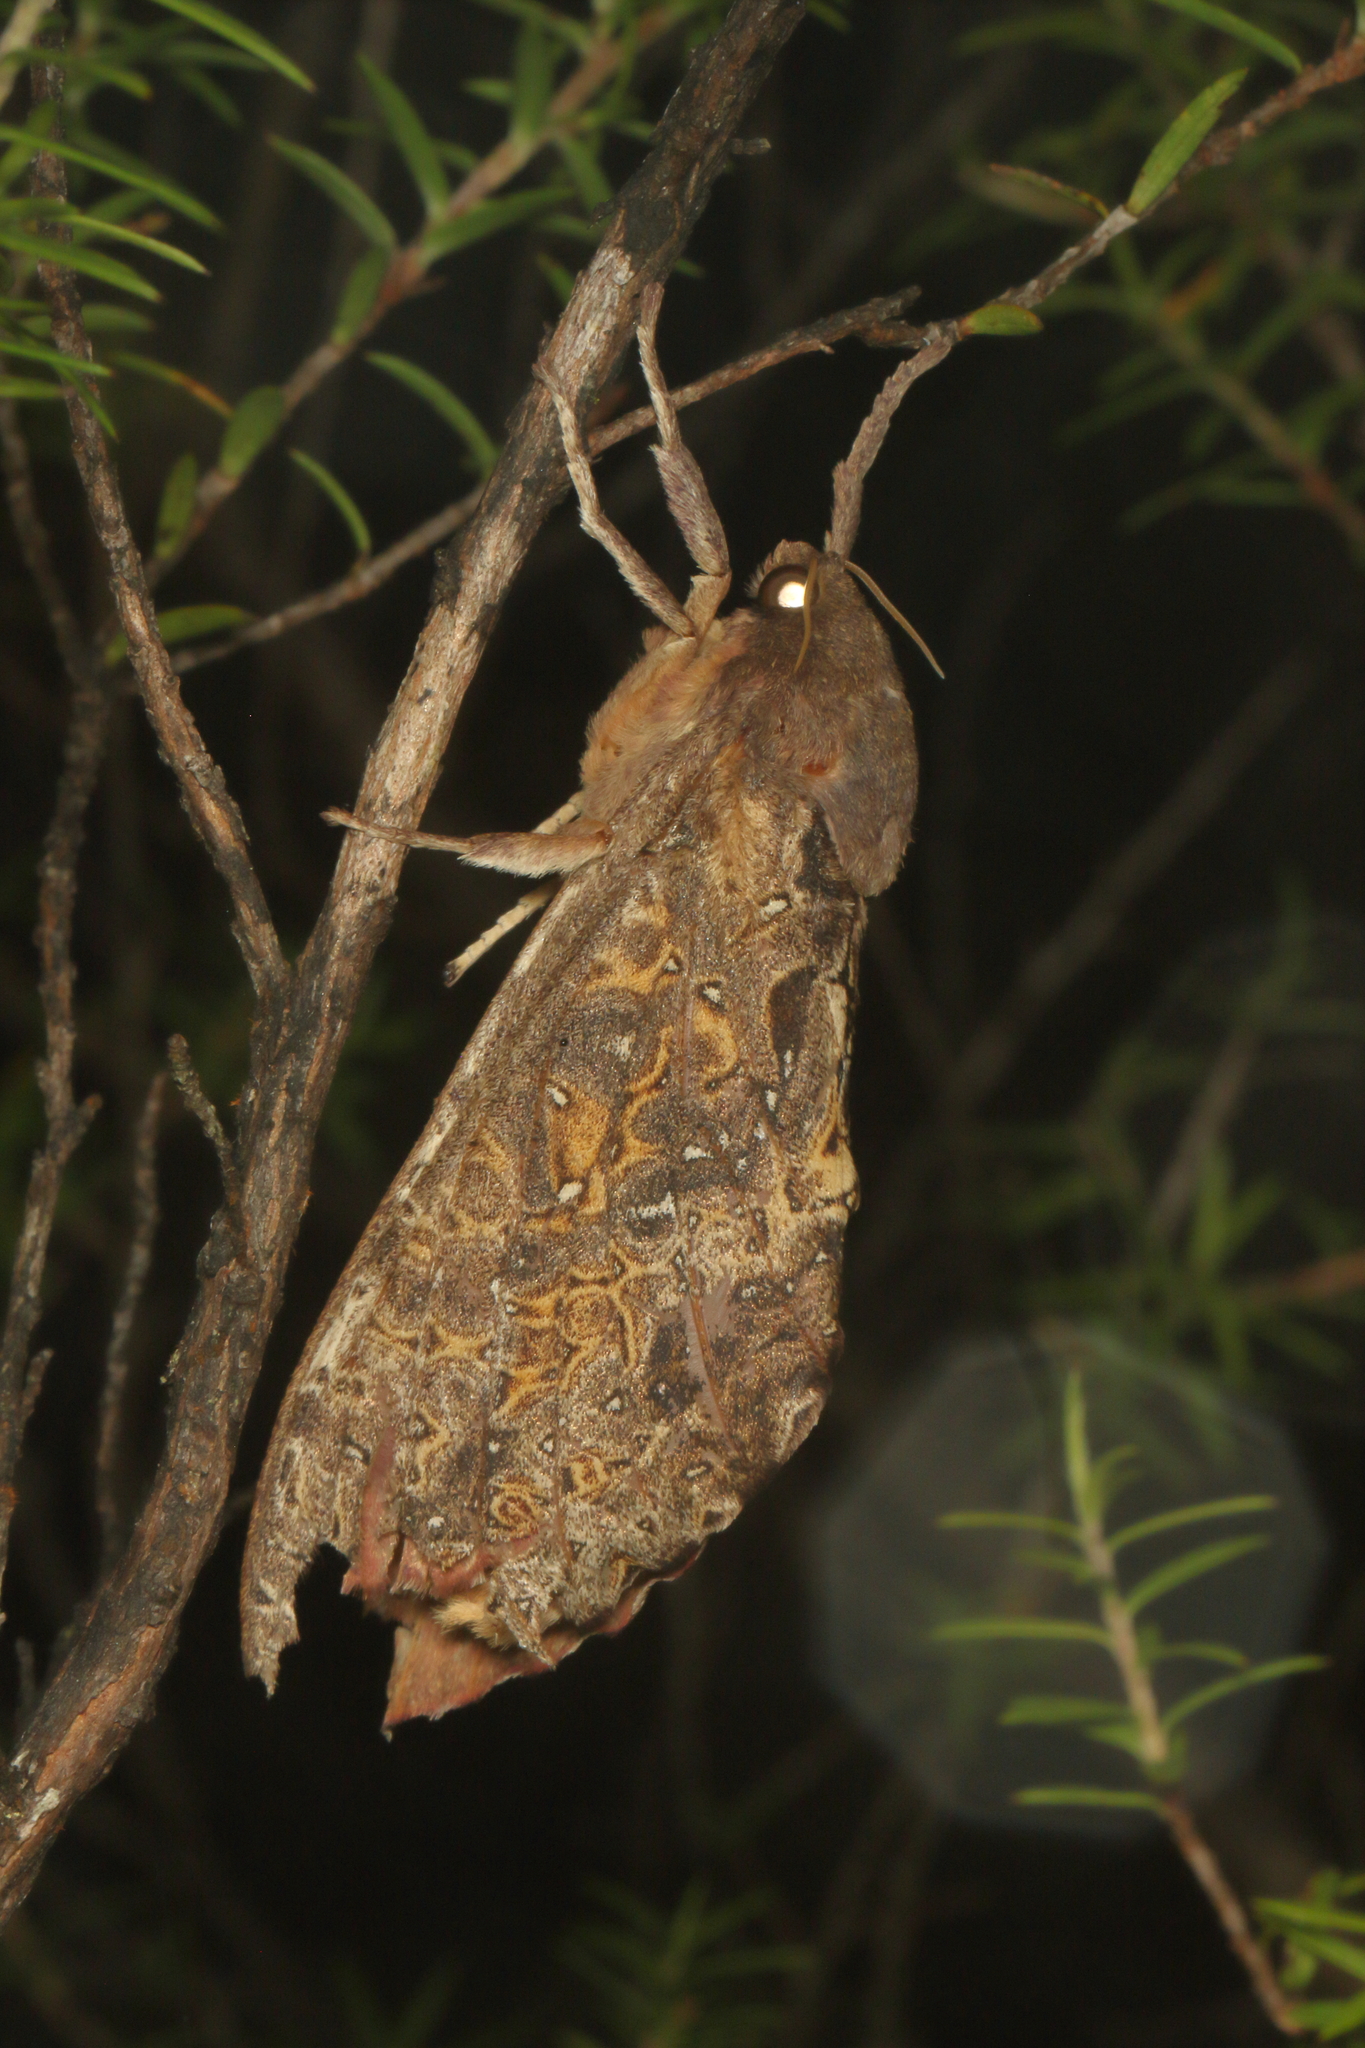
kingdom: Animalia
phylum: Arthropoda
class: Insecta
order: Lepidoptera
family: Hepialidae
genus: Dumbletonius
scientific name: Dumbletonius unimaculata
